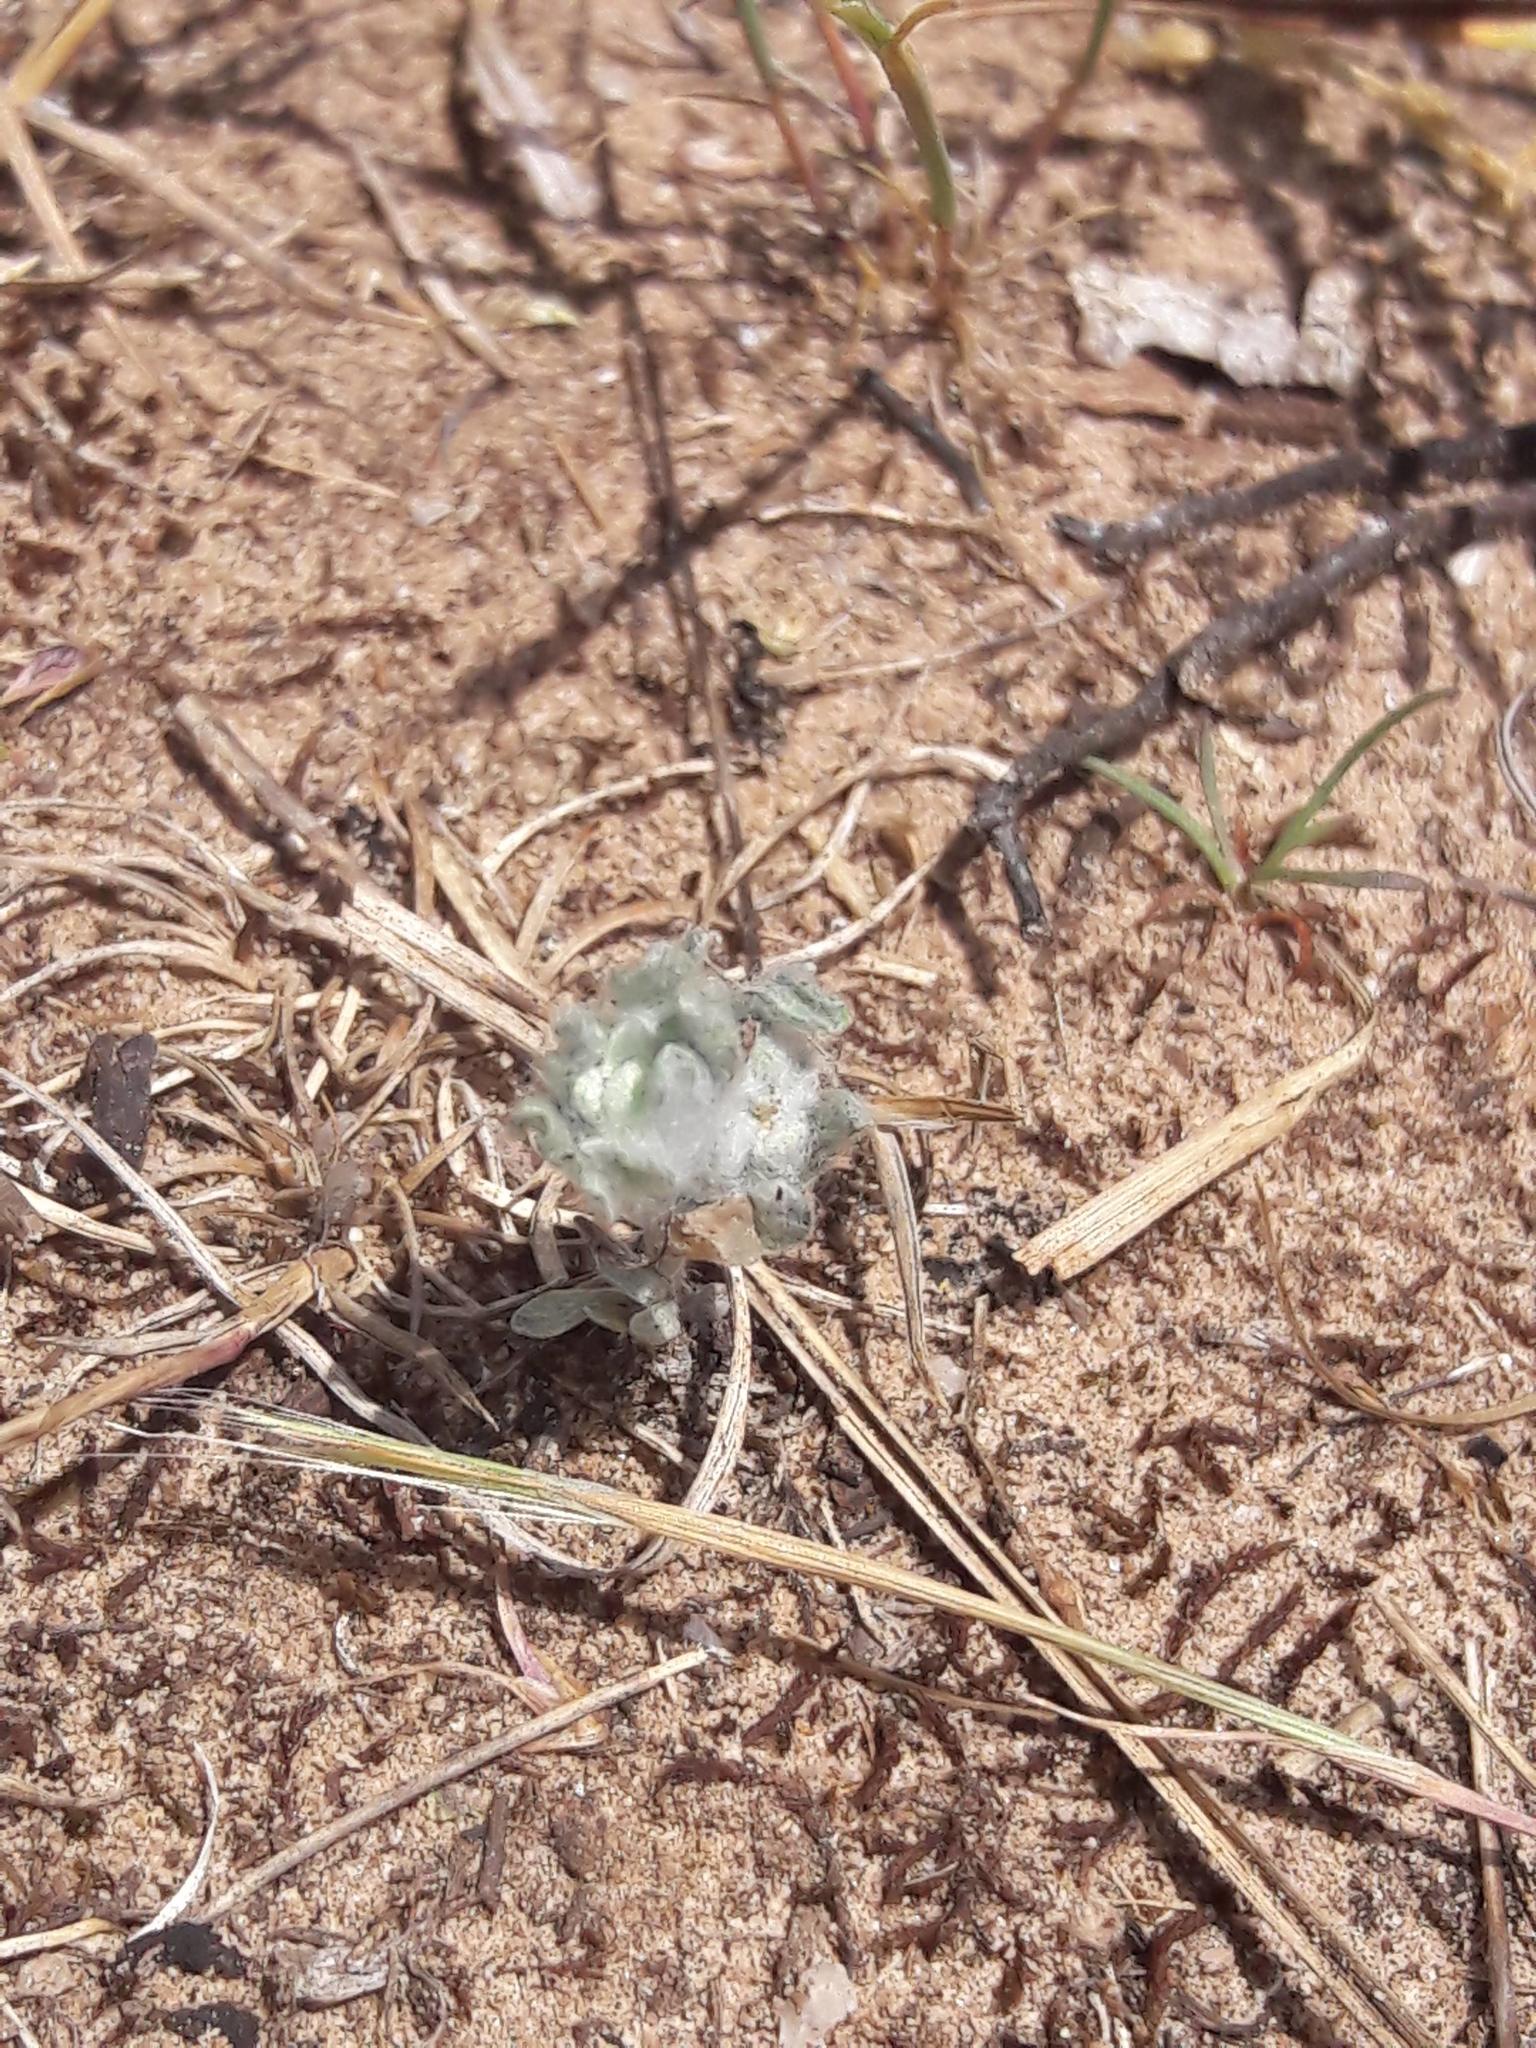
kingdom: Plantae
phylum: Tracheophyta
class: Magnoliopsida
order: Asterales
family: Asteraceae
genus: Bombycilaena
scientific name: Bombycilaena erecta
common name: Micropus
